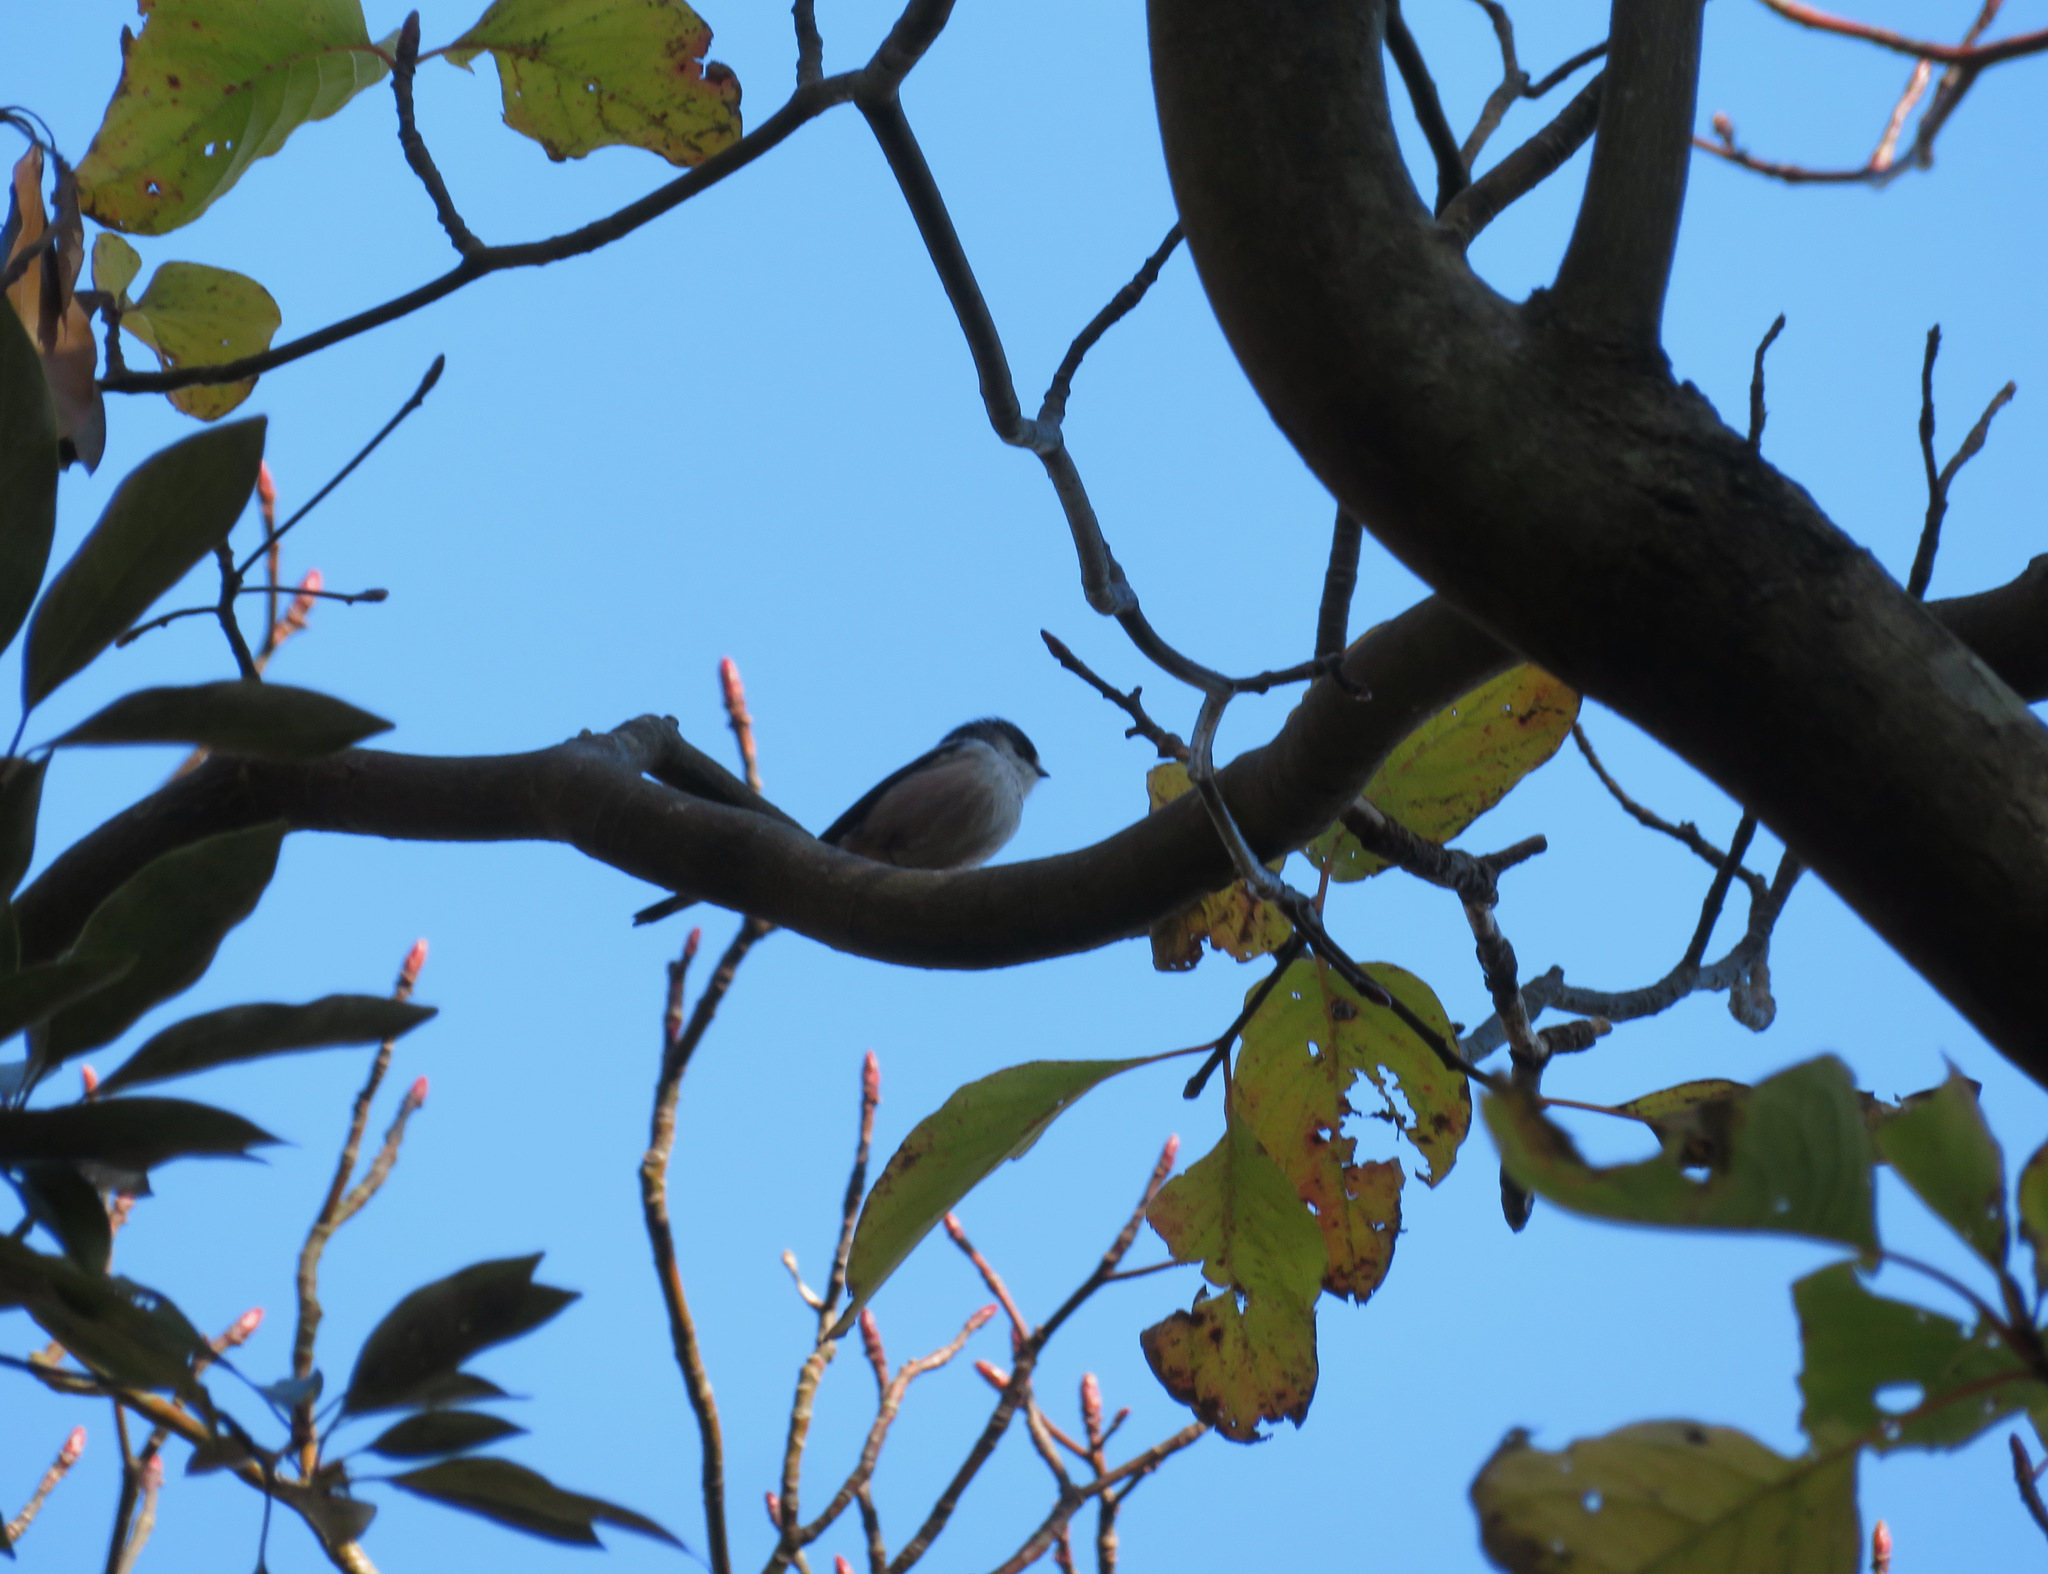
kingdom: Animalia
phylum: Chordata
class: Aves
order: Passeriformes
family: Aegithalidae
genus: Aegithalos
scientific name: Aegithalos caudatus
